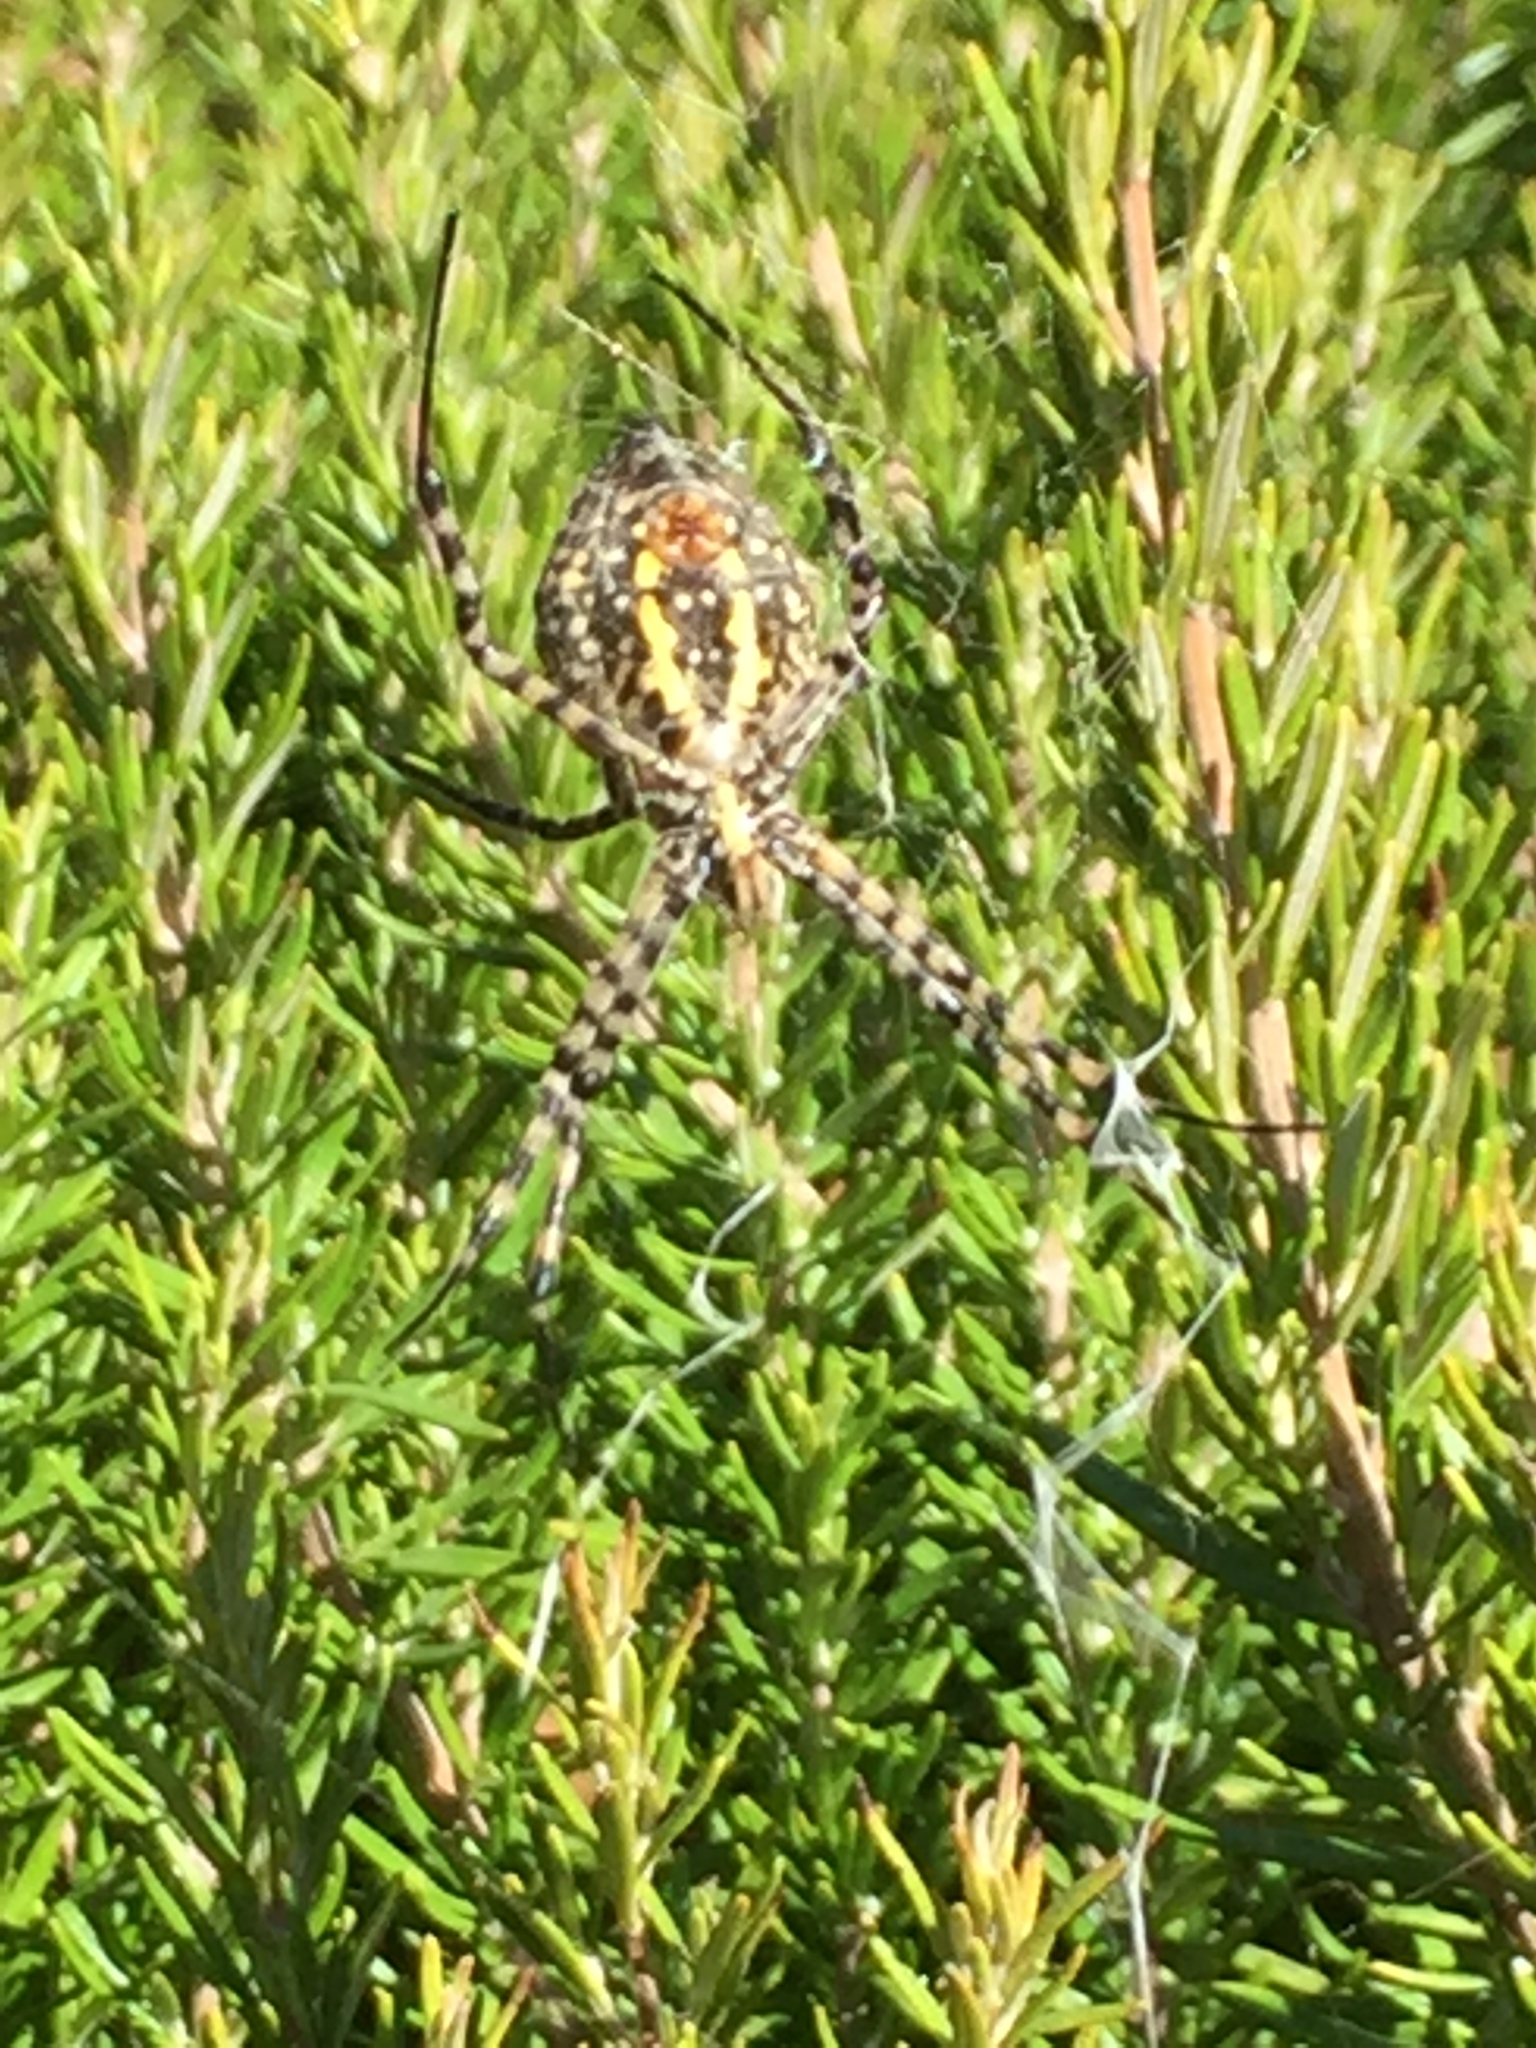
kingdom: Animalia
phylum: Arthropoda
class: Arachnida
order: Araneae
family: Araneidae
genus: Argiope
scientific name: Argiope trifasciata
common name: Banded garden spider
